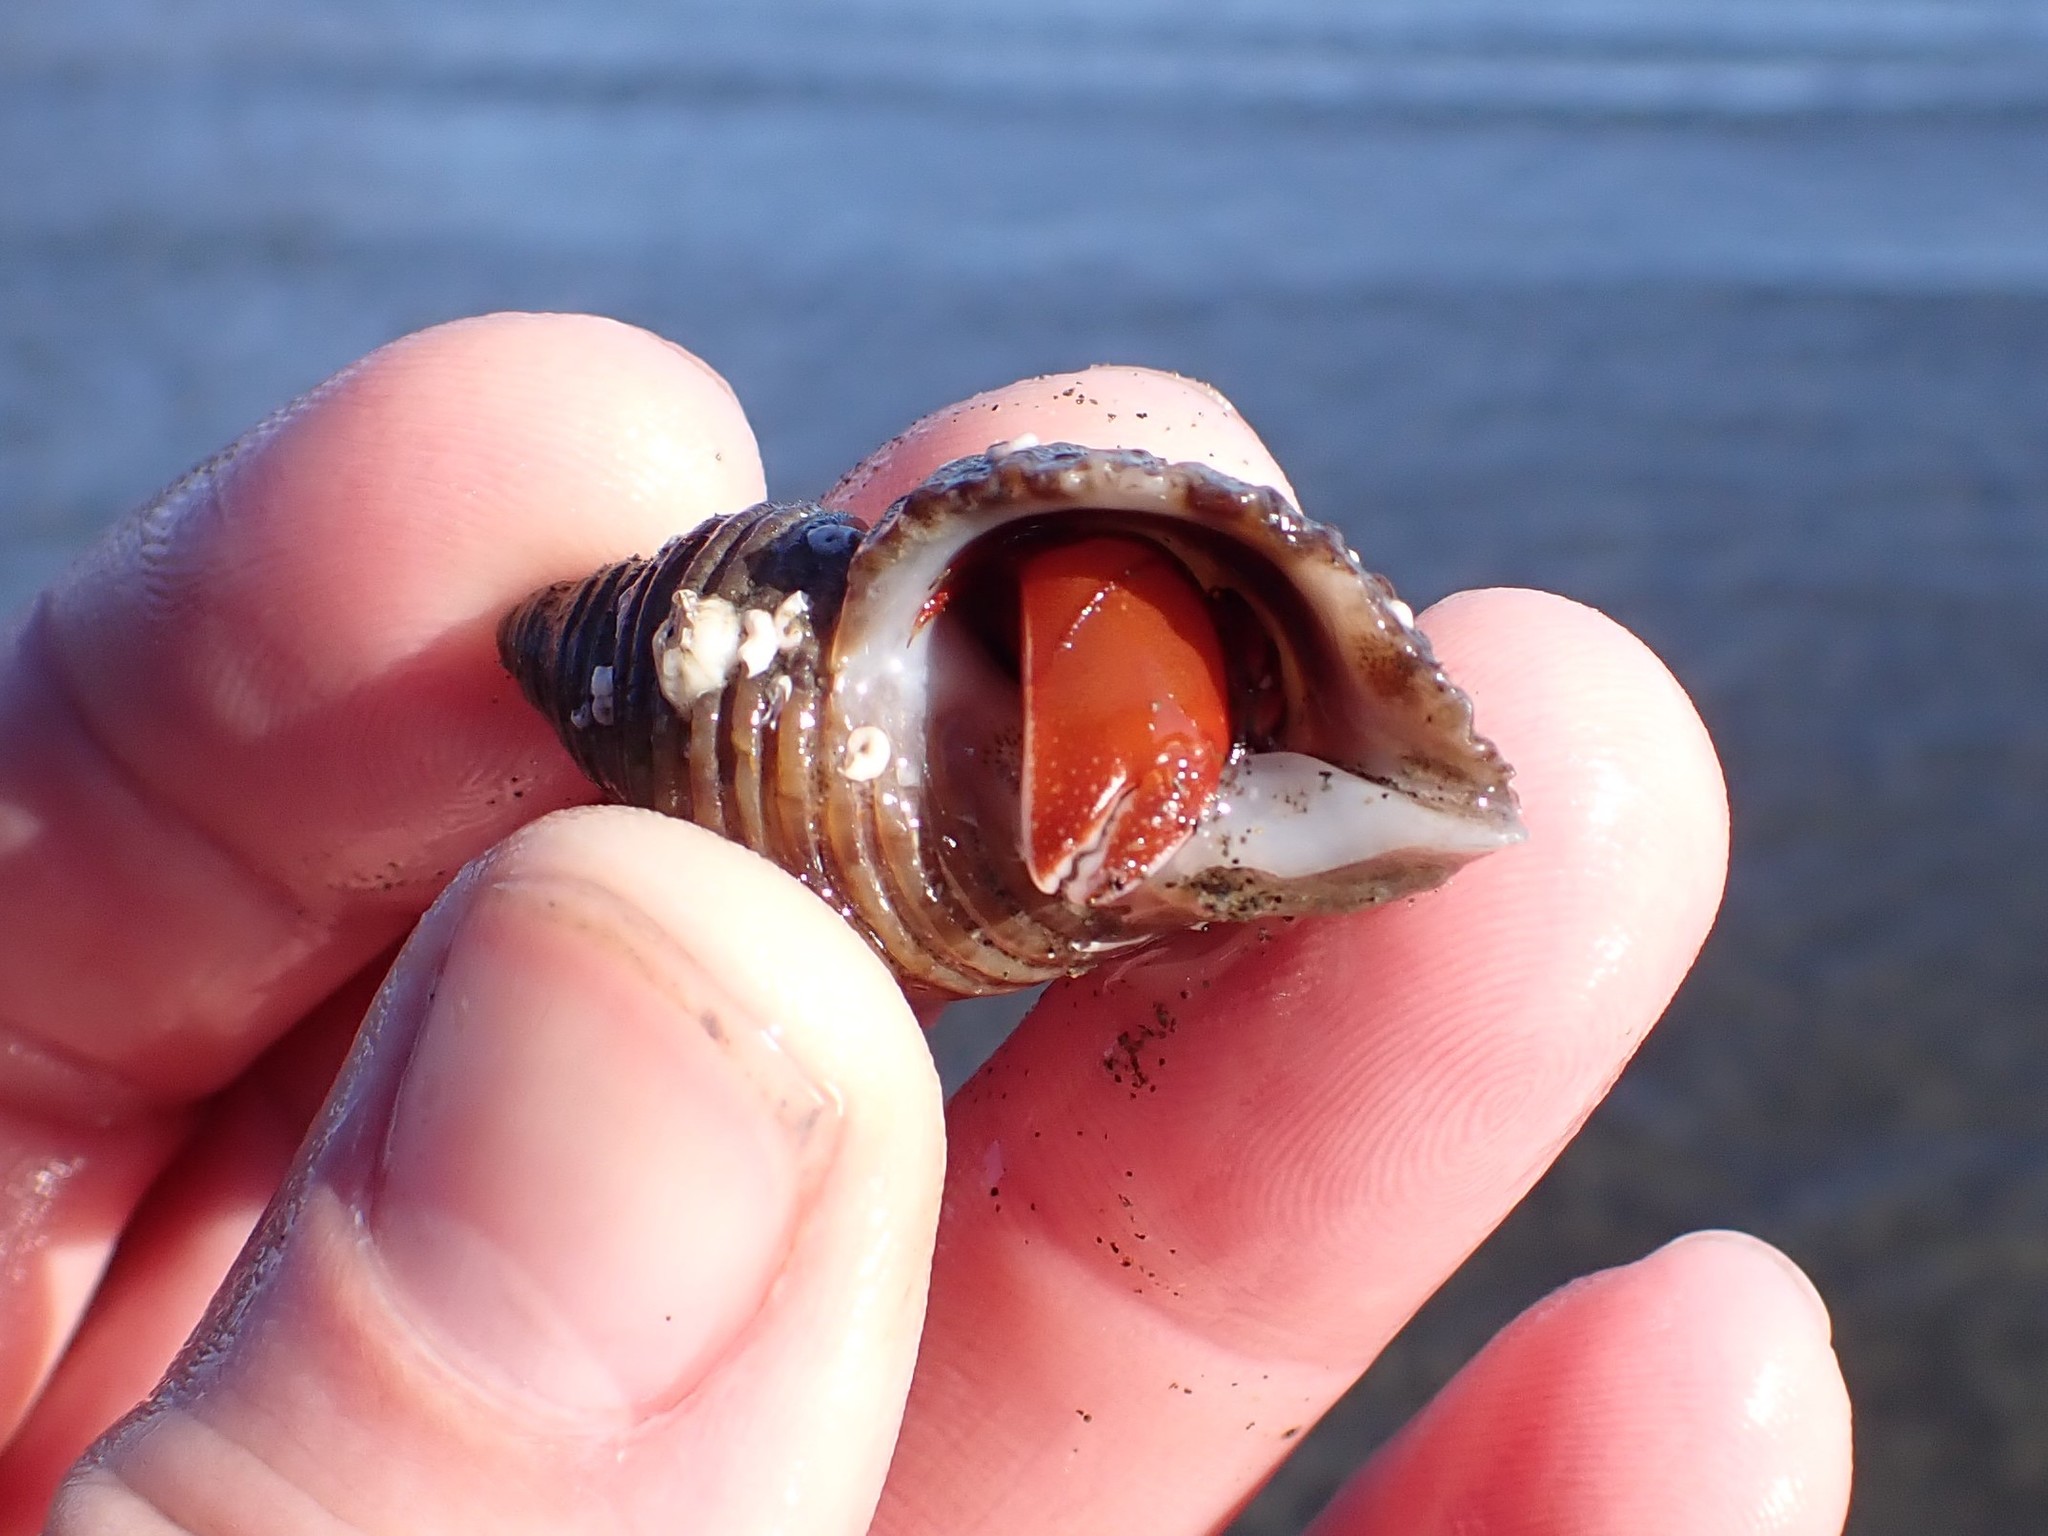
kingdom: Animalia
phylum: Arthropoda
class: Malacostraca
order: Decapoda
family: Paguridae
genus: Elassochirus
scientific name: Elassochirus gilli
